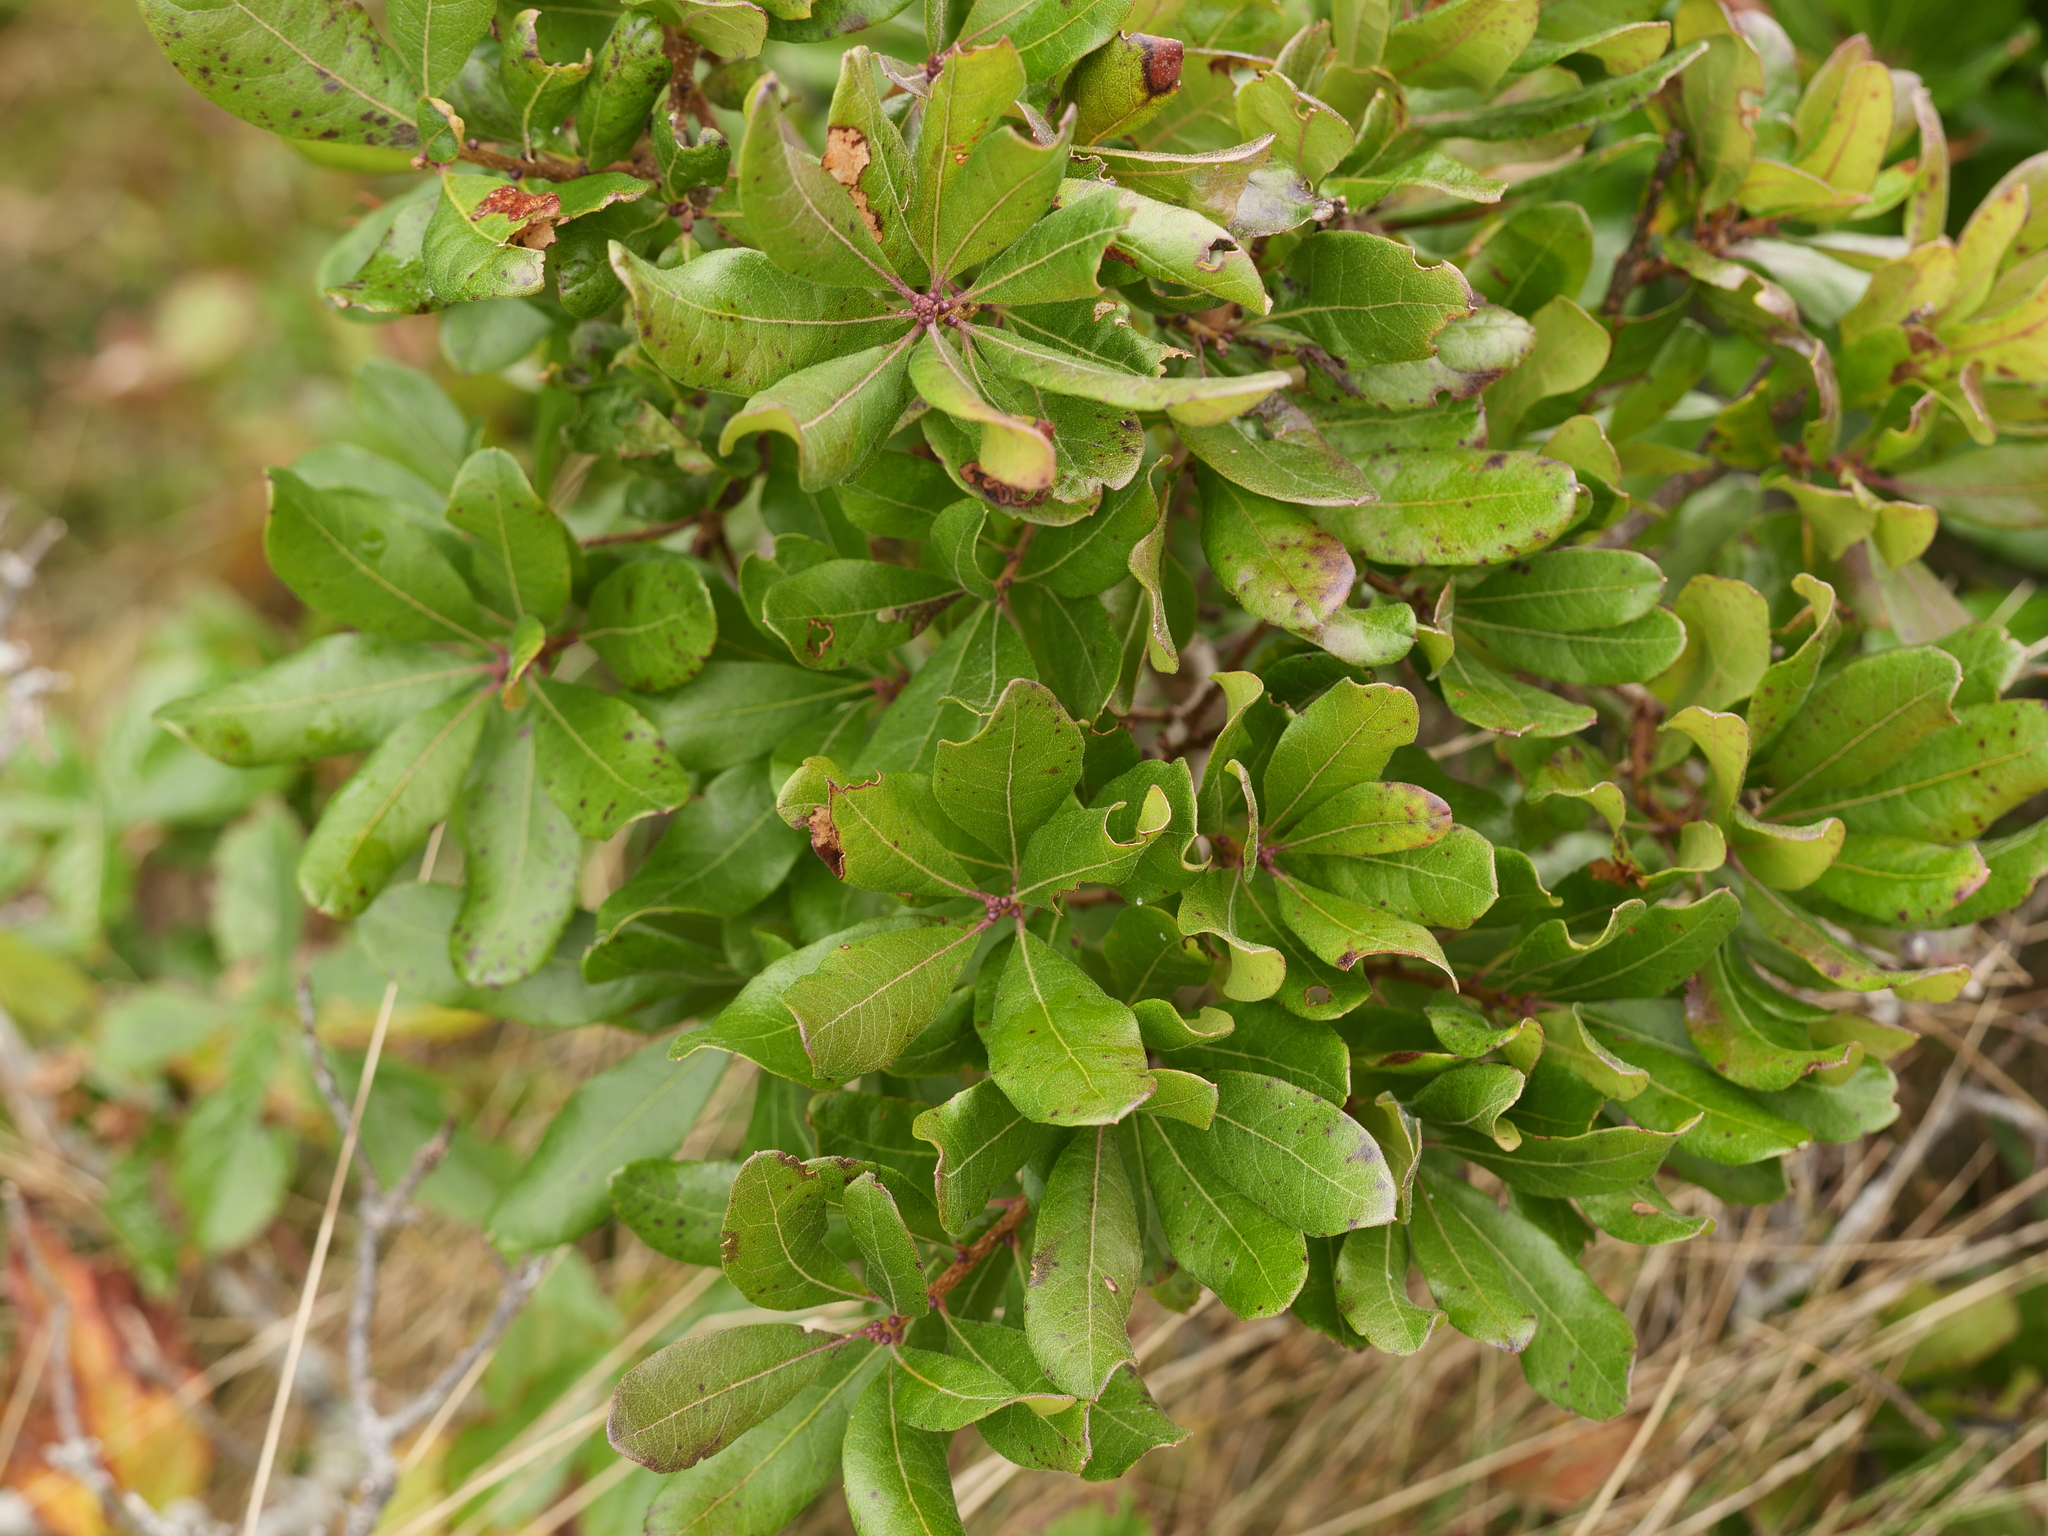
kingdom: Plantae
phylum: Tracheophyta
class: Magnoliopsida
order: Fagales
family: Myricaceae
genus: Morella
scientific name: Morella pensylvanica
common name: Northern bayberry
